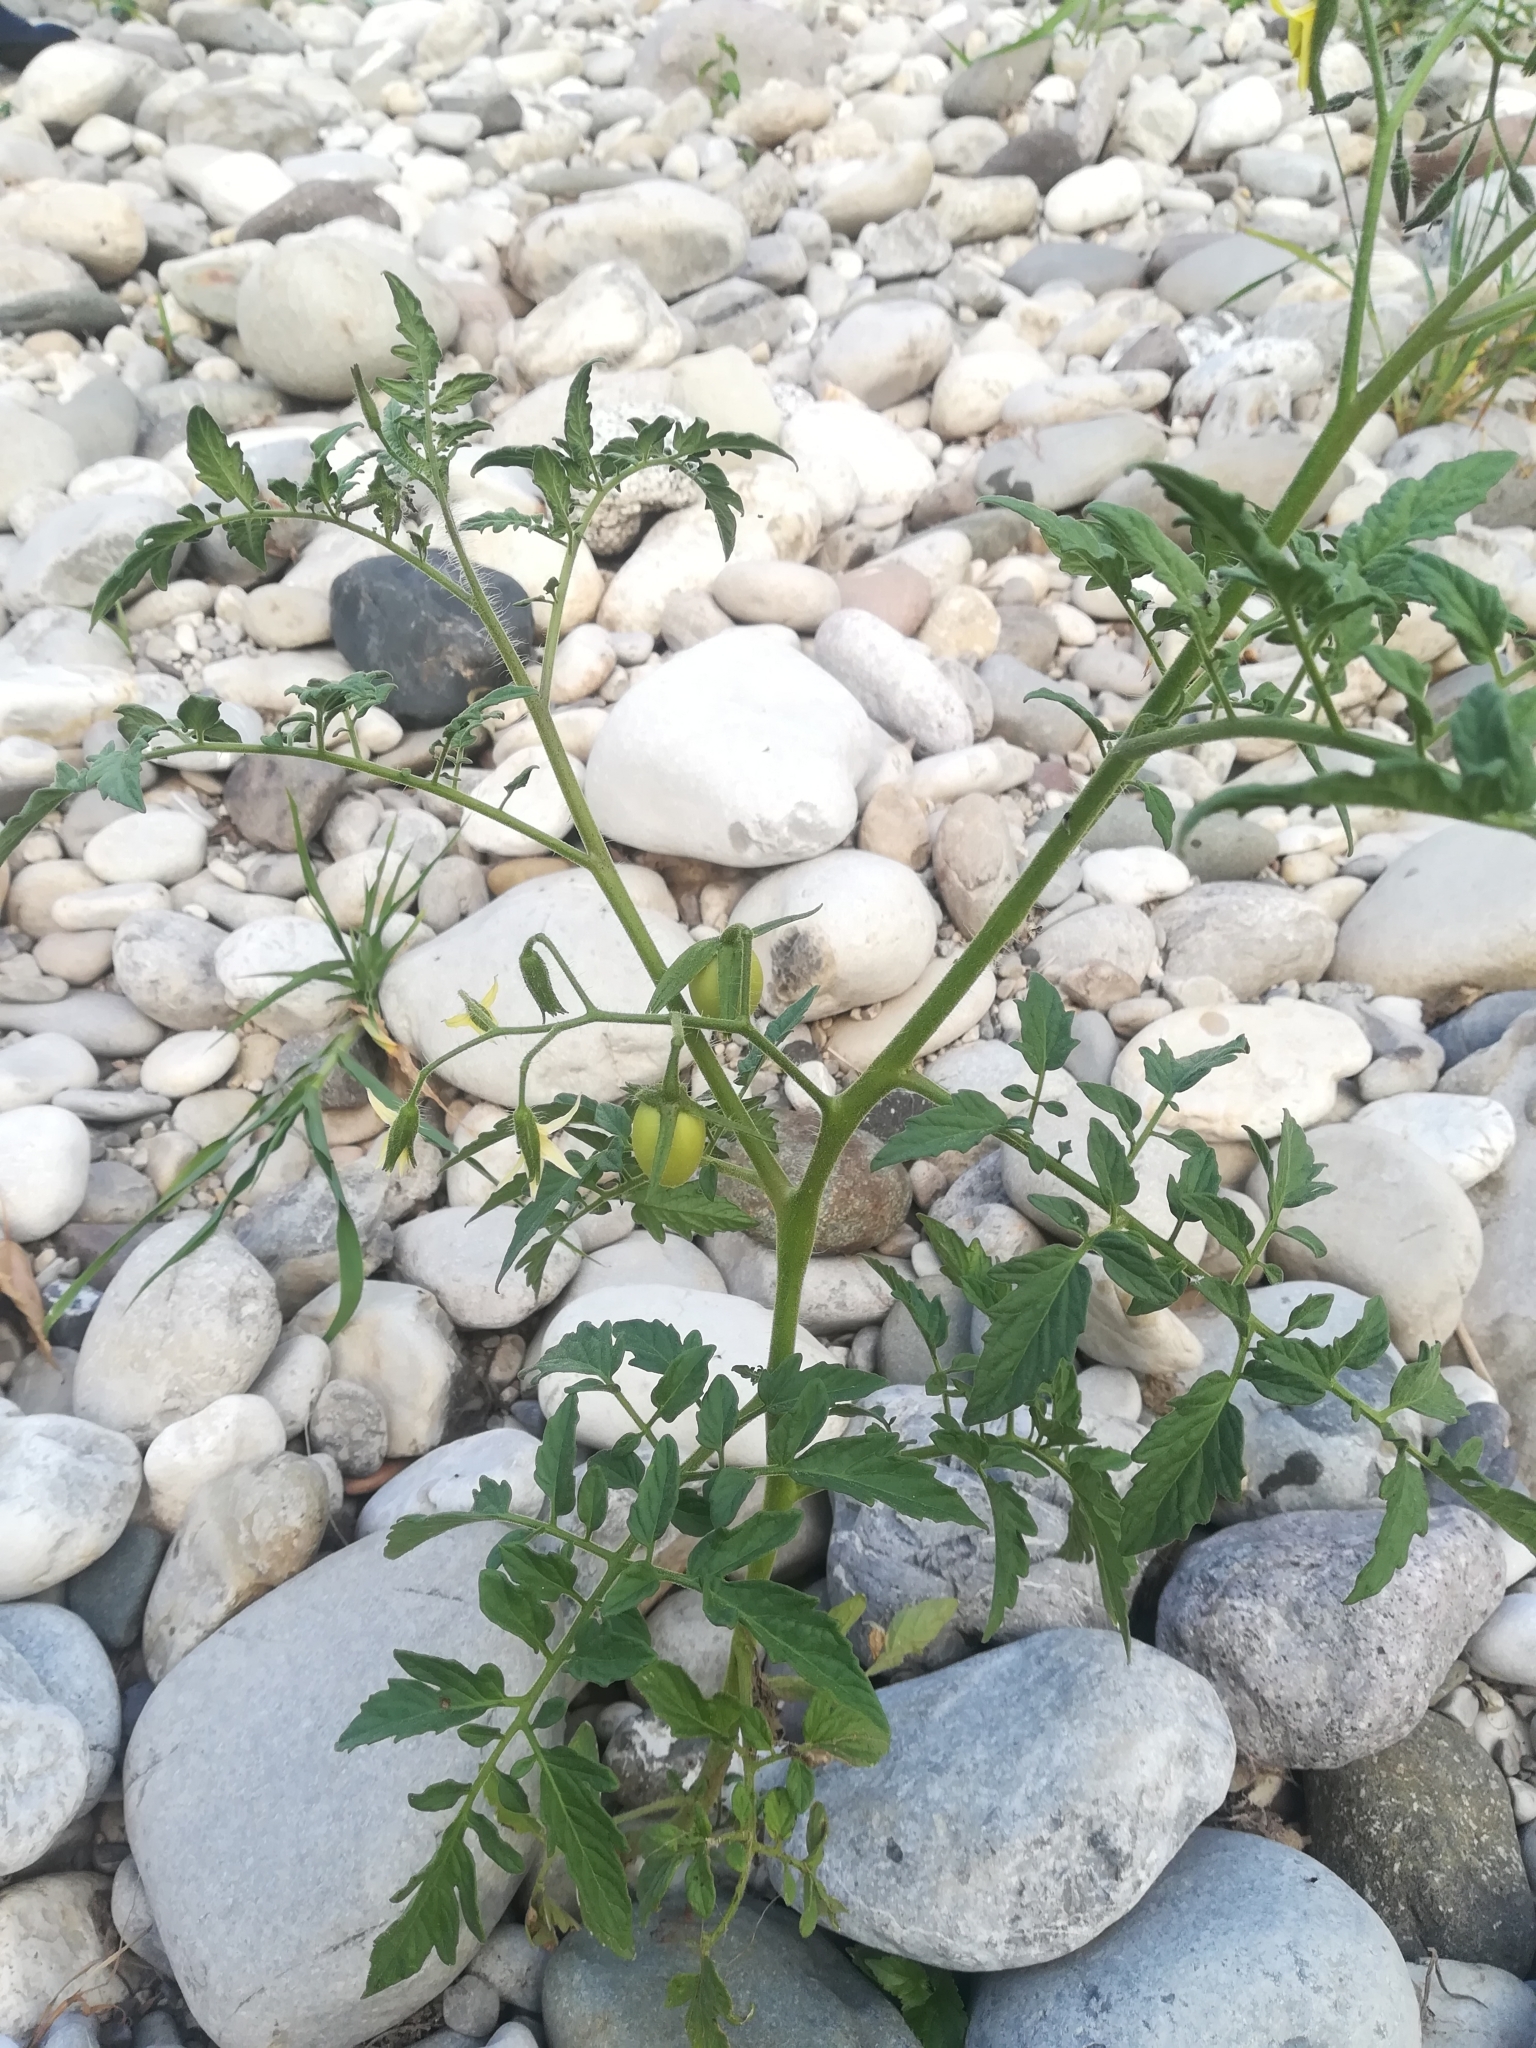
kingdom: Plantae
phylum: Tracheophyta
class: Magnoliopsida
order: Solanales
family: Solanaceae
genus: Solanum
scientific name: Solanum lycopersicum
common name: Garden tomato
